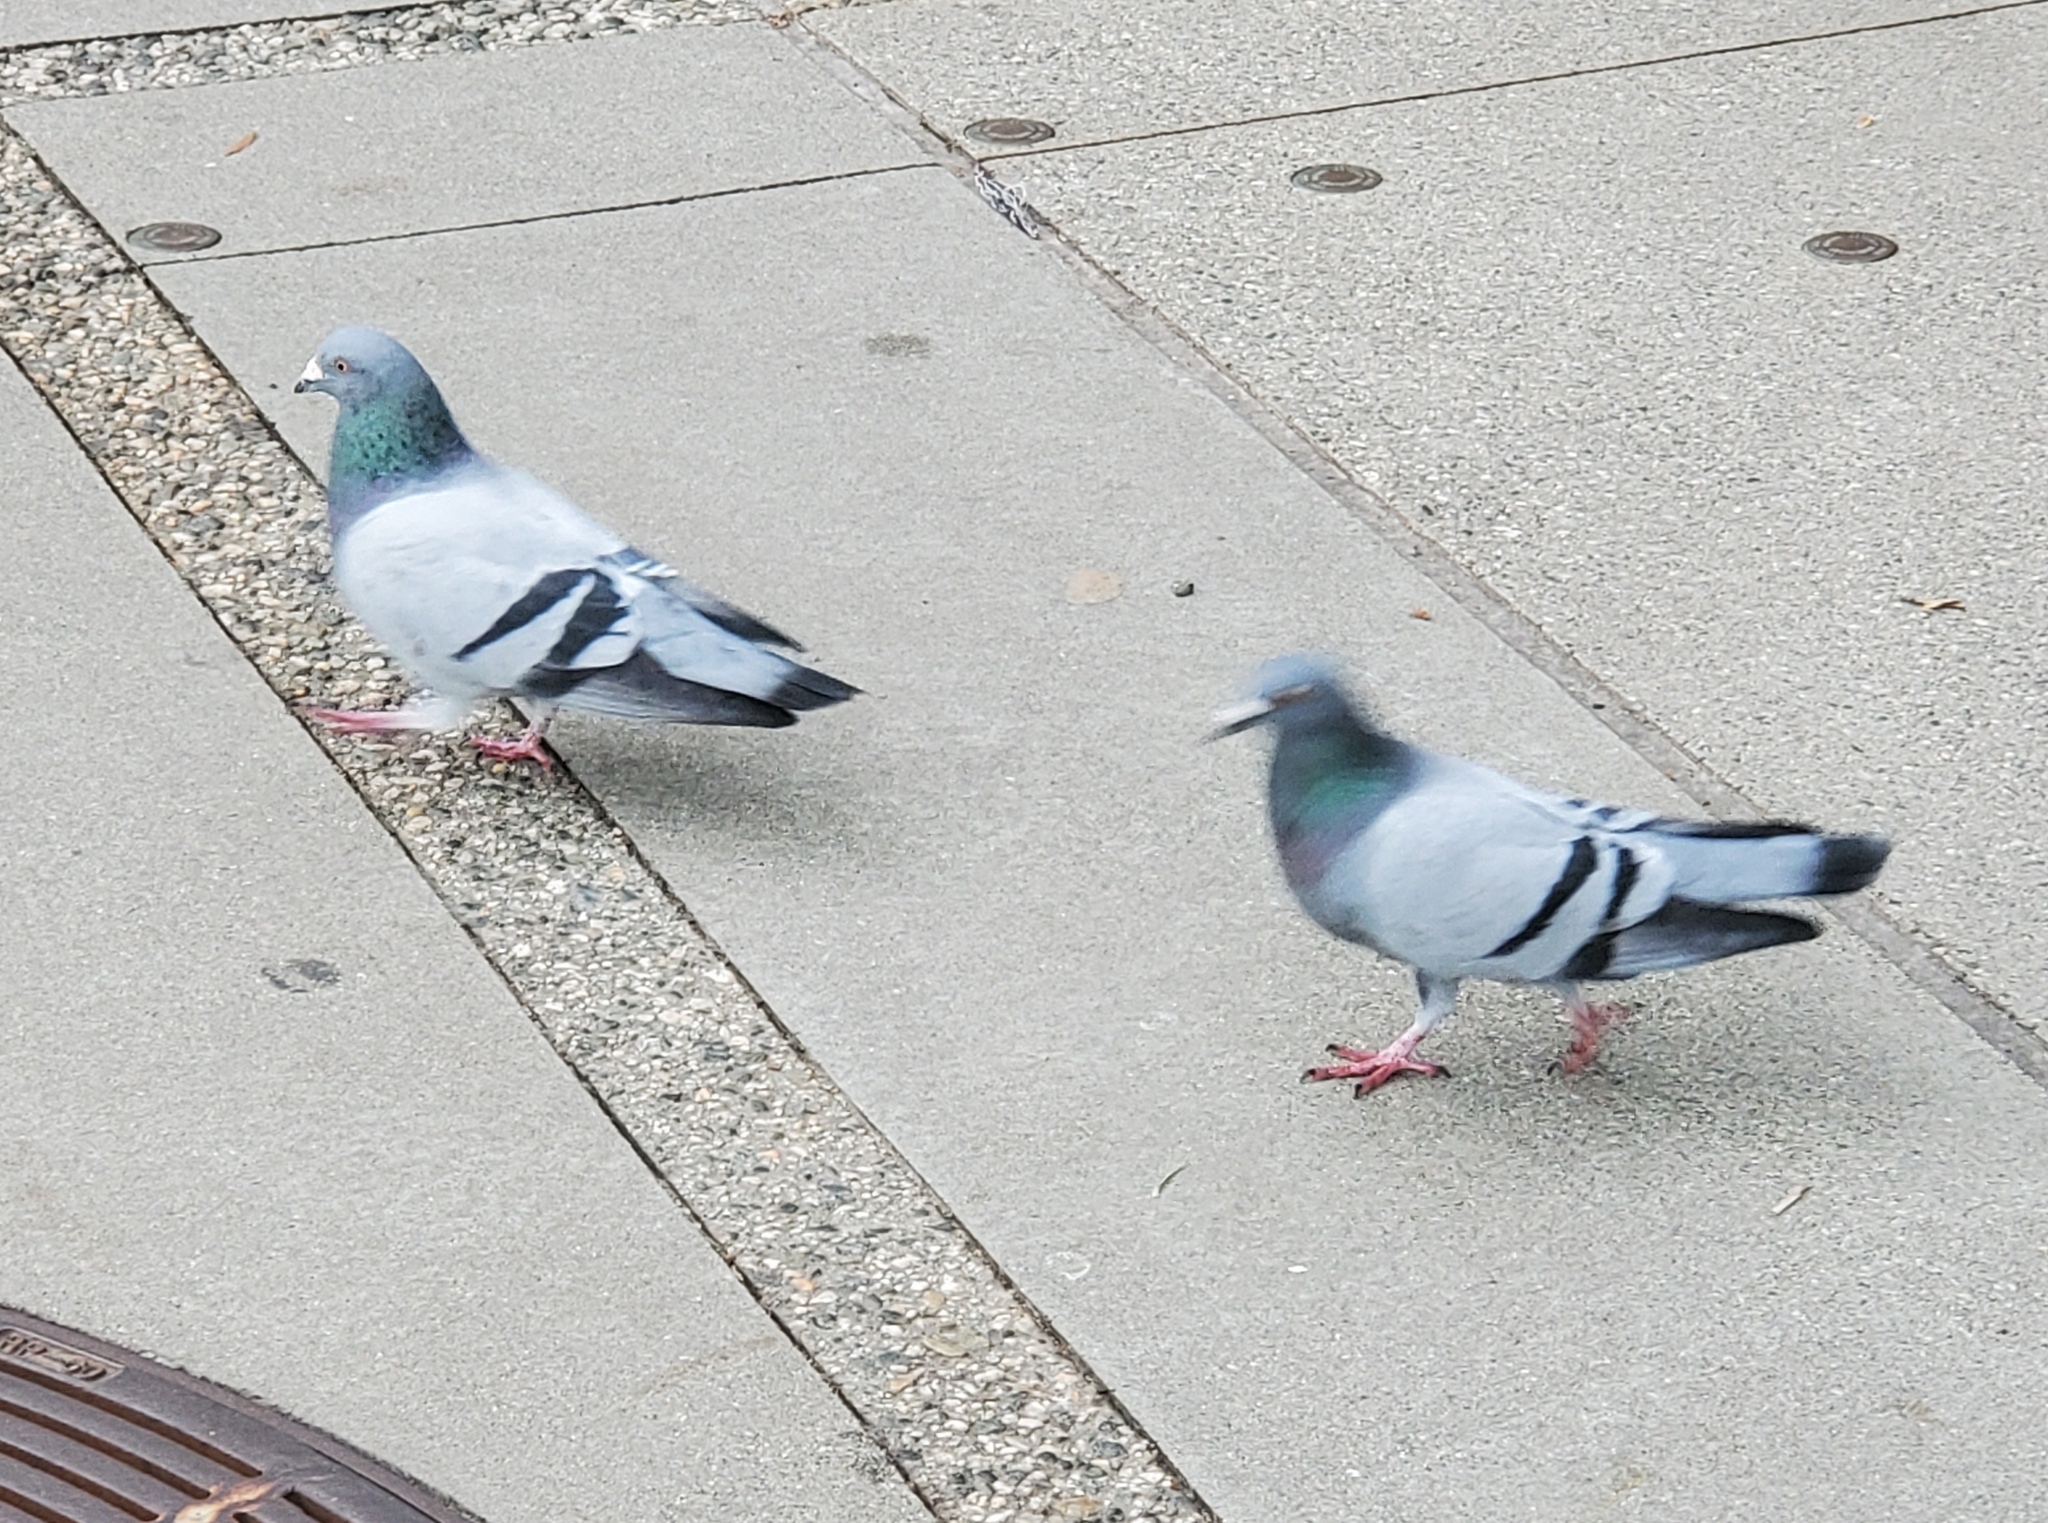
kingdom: Animalia
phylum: Chordata
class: Aves
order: Columbiformes
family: Columbidae
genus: Columba
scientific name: Columba livia
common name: Rock pigeon
